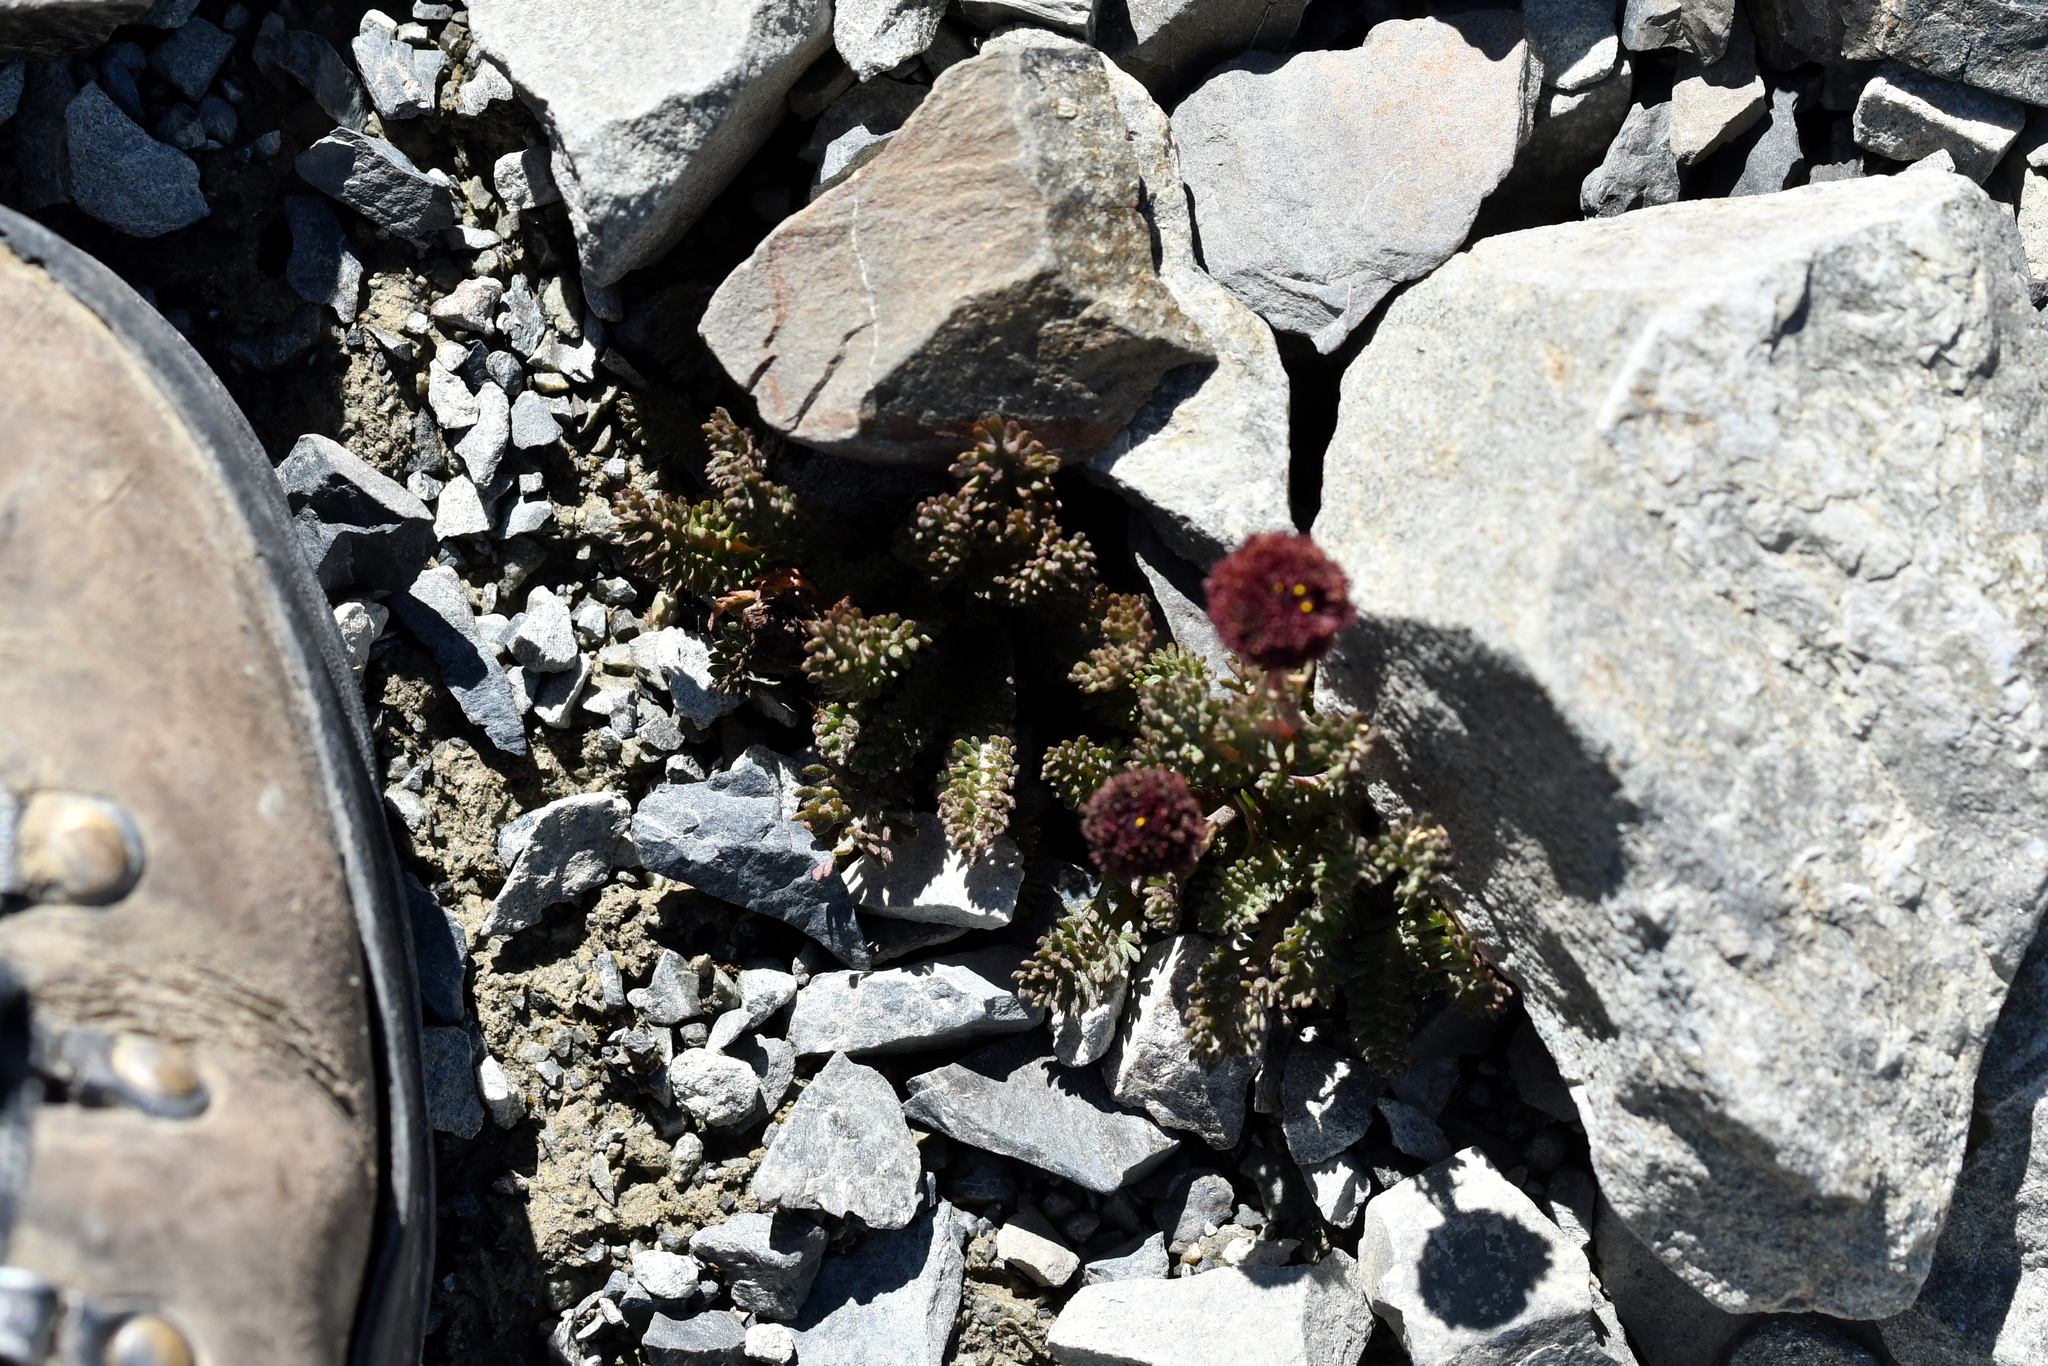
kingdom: Plantae
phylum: Tracheophyta
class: Magnoliopsida
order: Asterales
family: Asteraceae
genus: Leptinella
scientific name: Leptinella atrata
